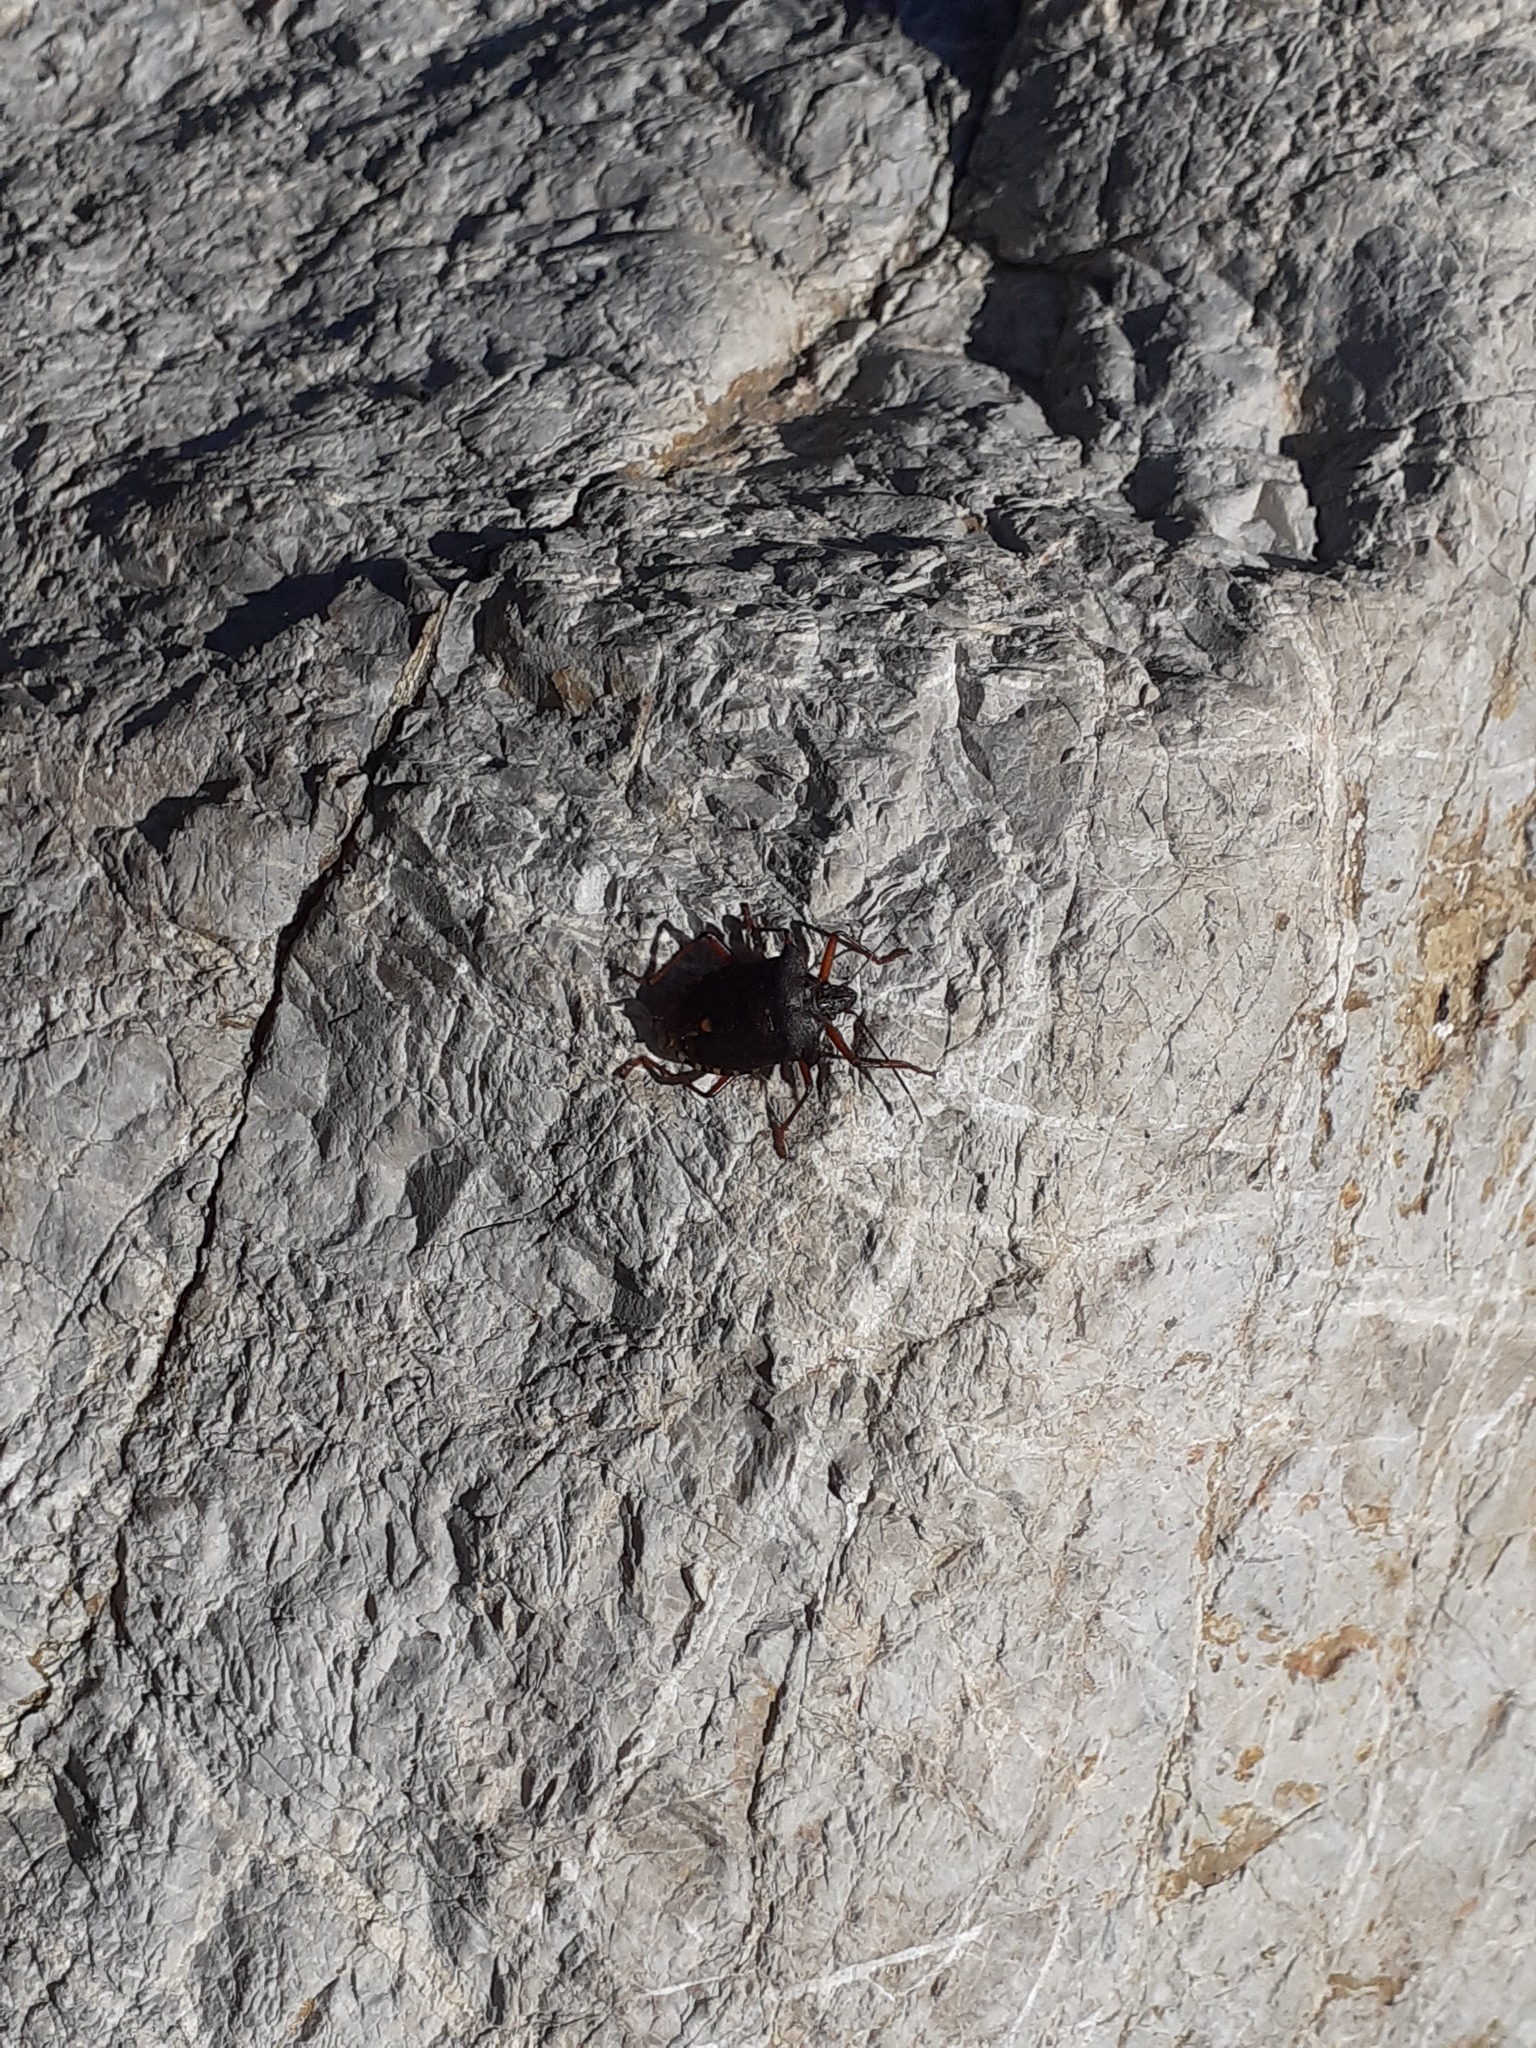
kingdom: Animalia
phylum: Arthropoda
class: Insecta
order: Hemiptera
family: Pentatomidae
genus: Pentatoma
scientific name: Pentatoma rufipes
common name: Forest bug
